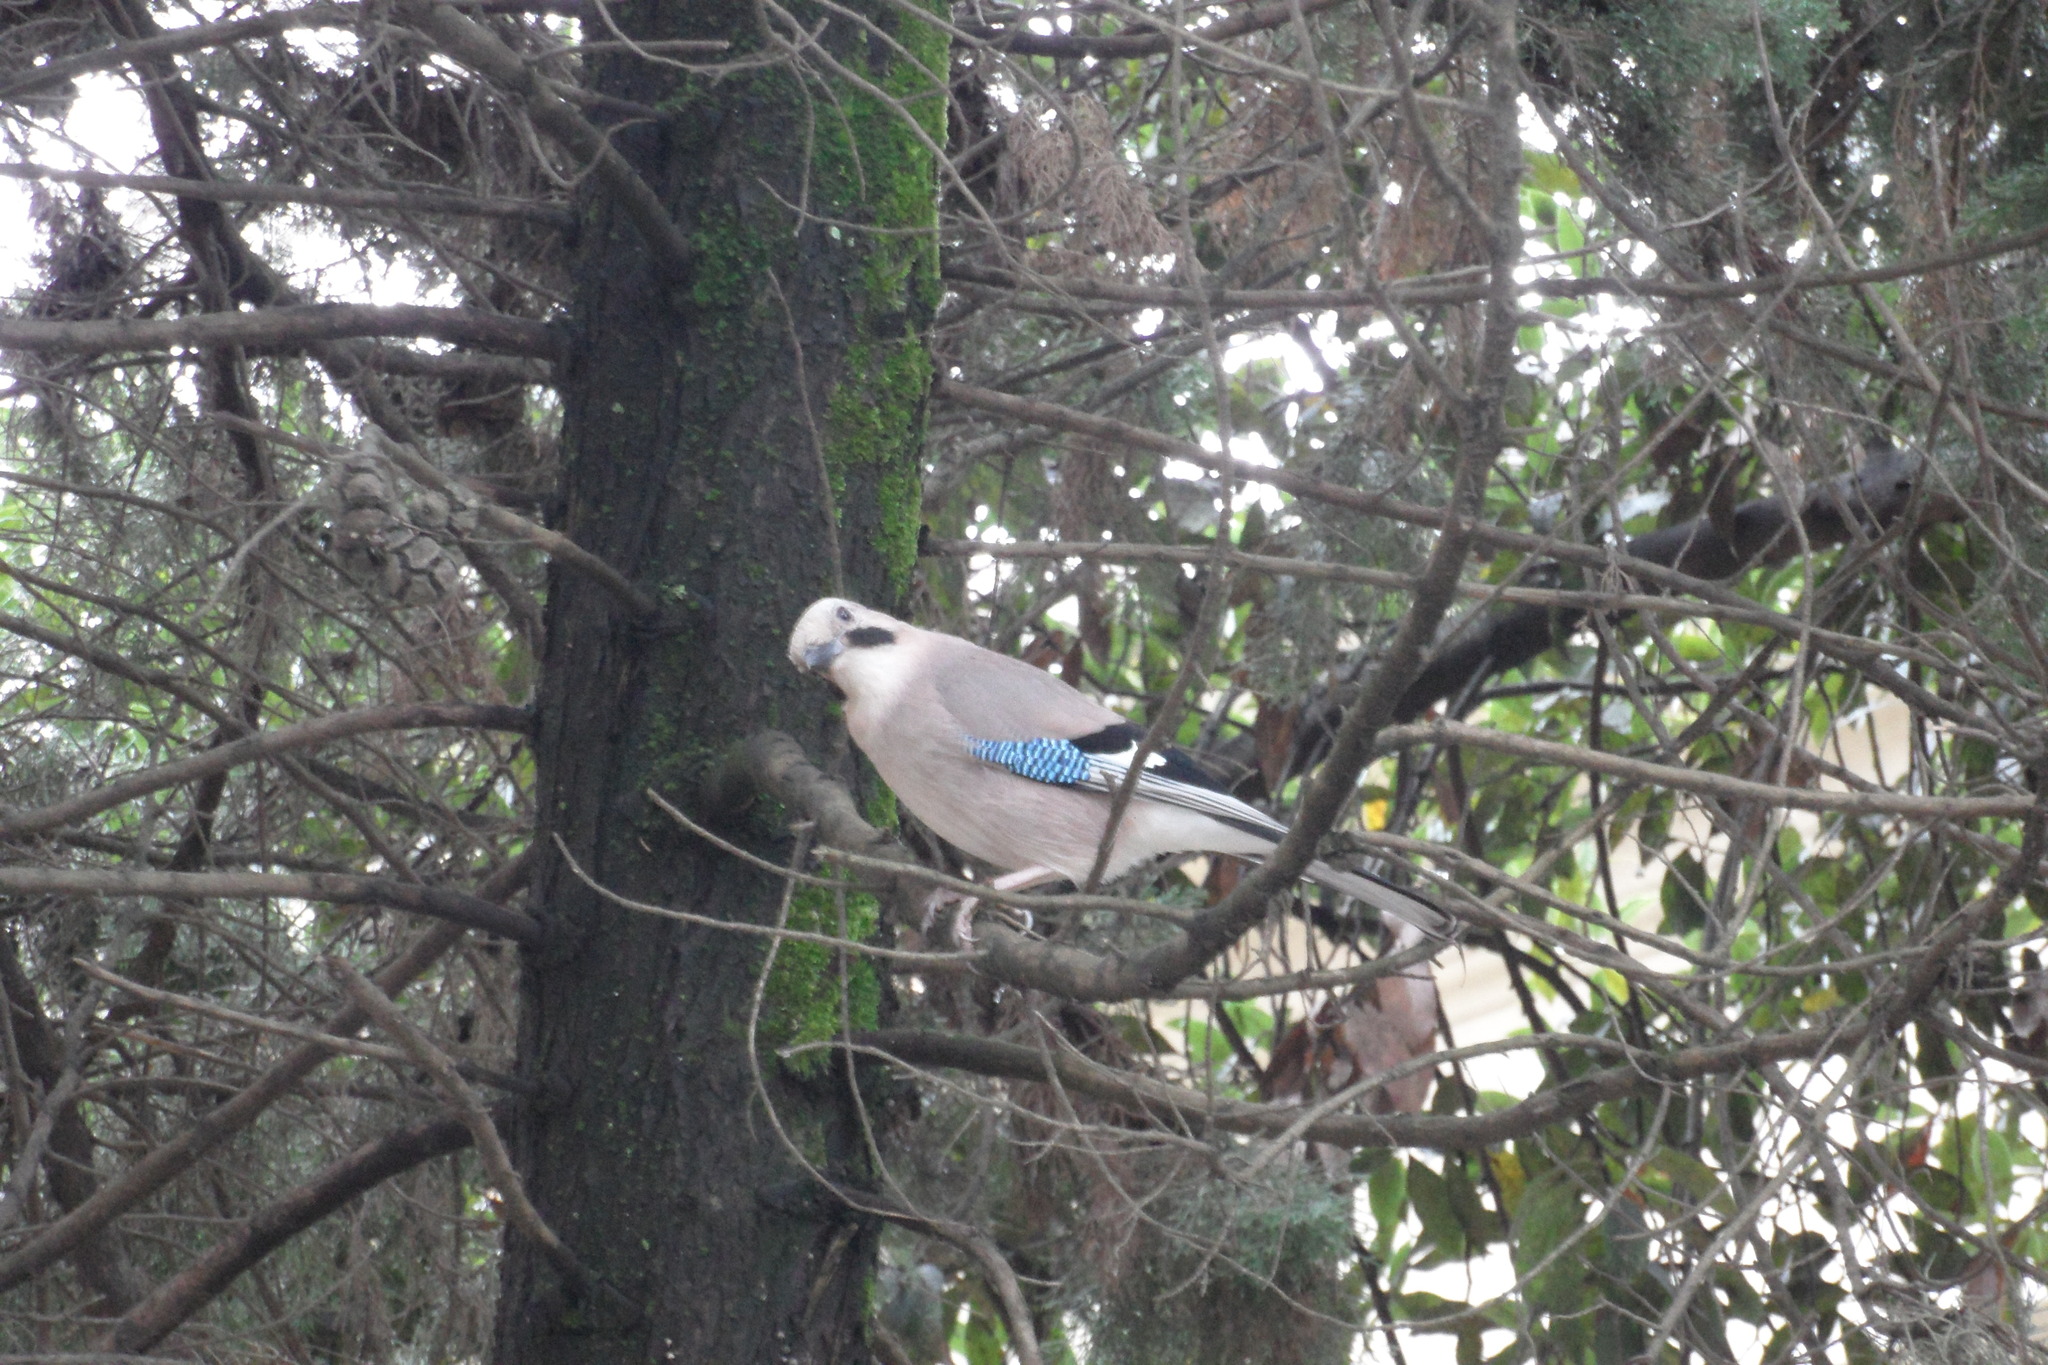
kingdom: Animalia
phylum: Chordata
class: Aves
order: Passeriformes
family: Corvidae
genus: Garrulus
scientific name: Garrulus glandarius
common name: Eurasian jay
